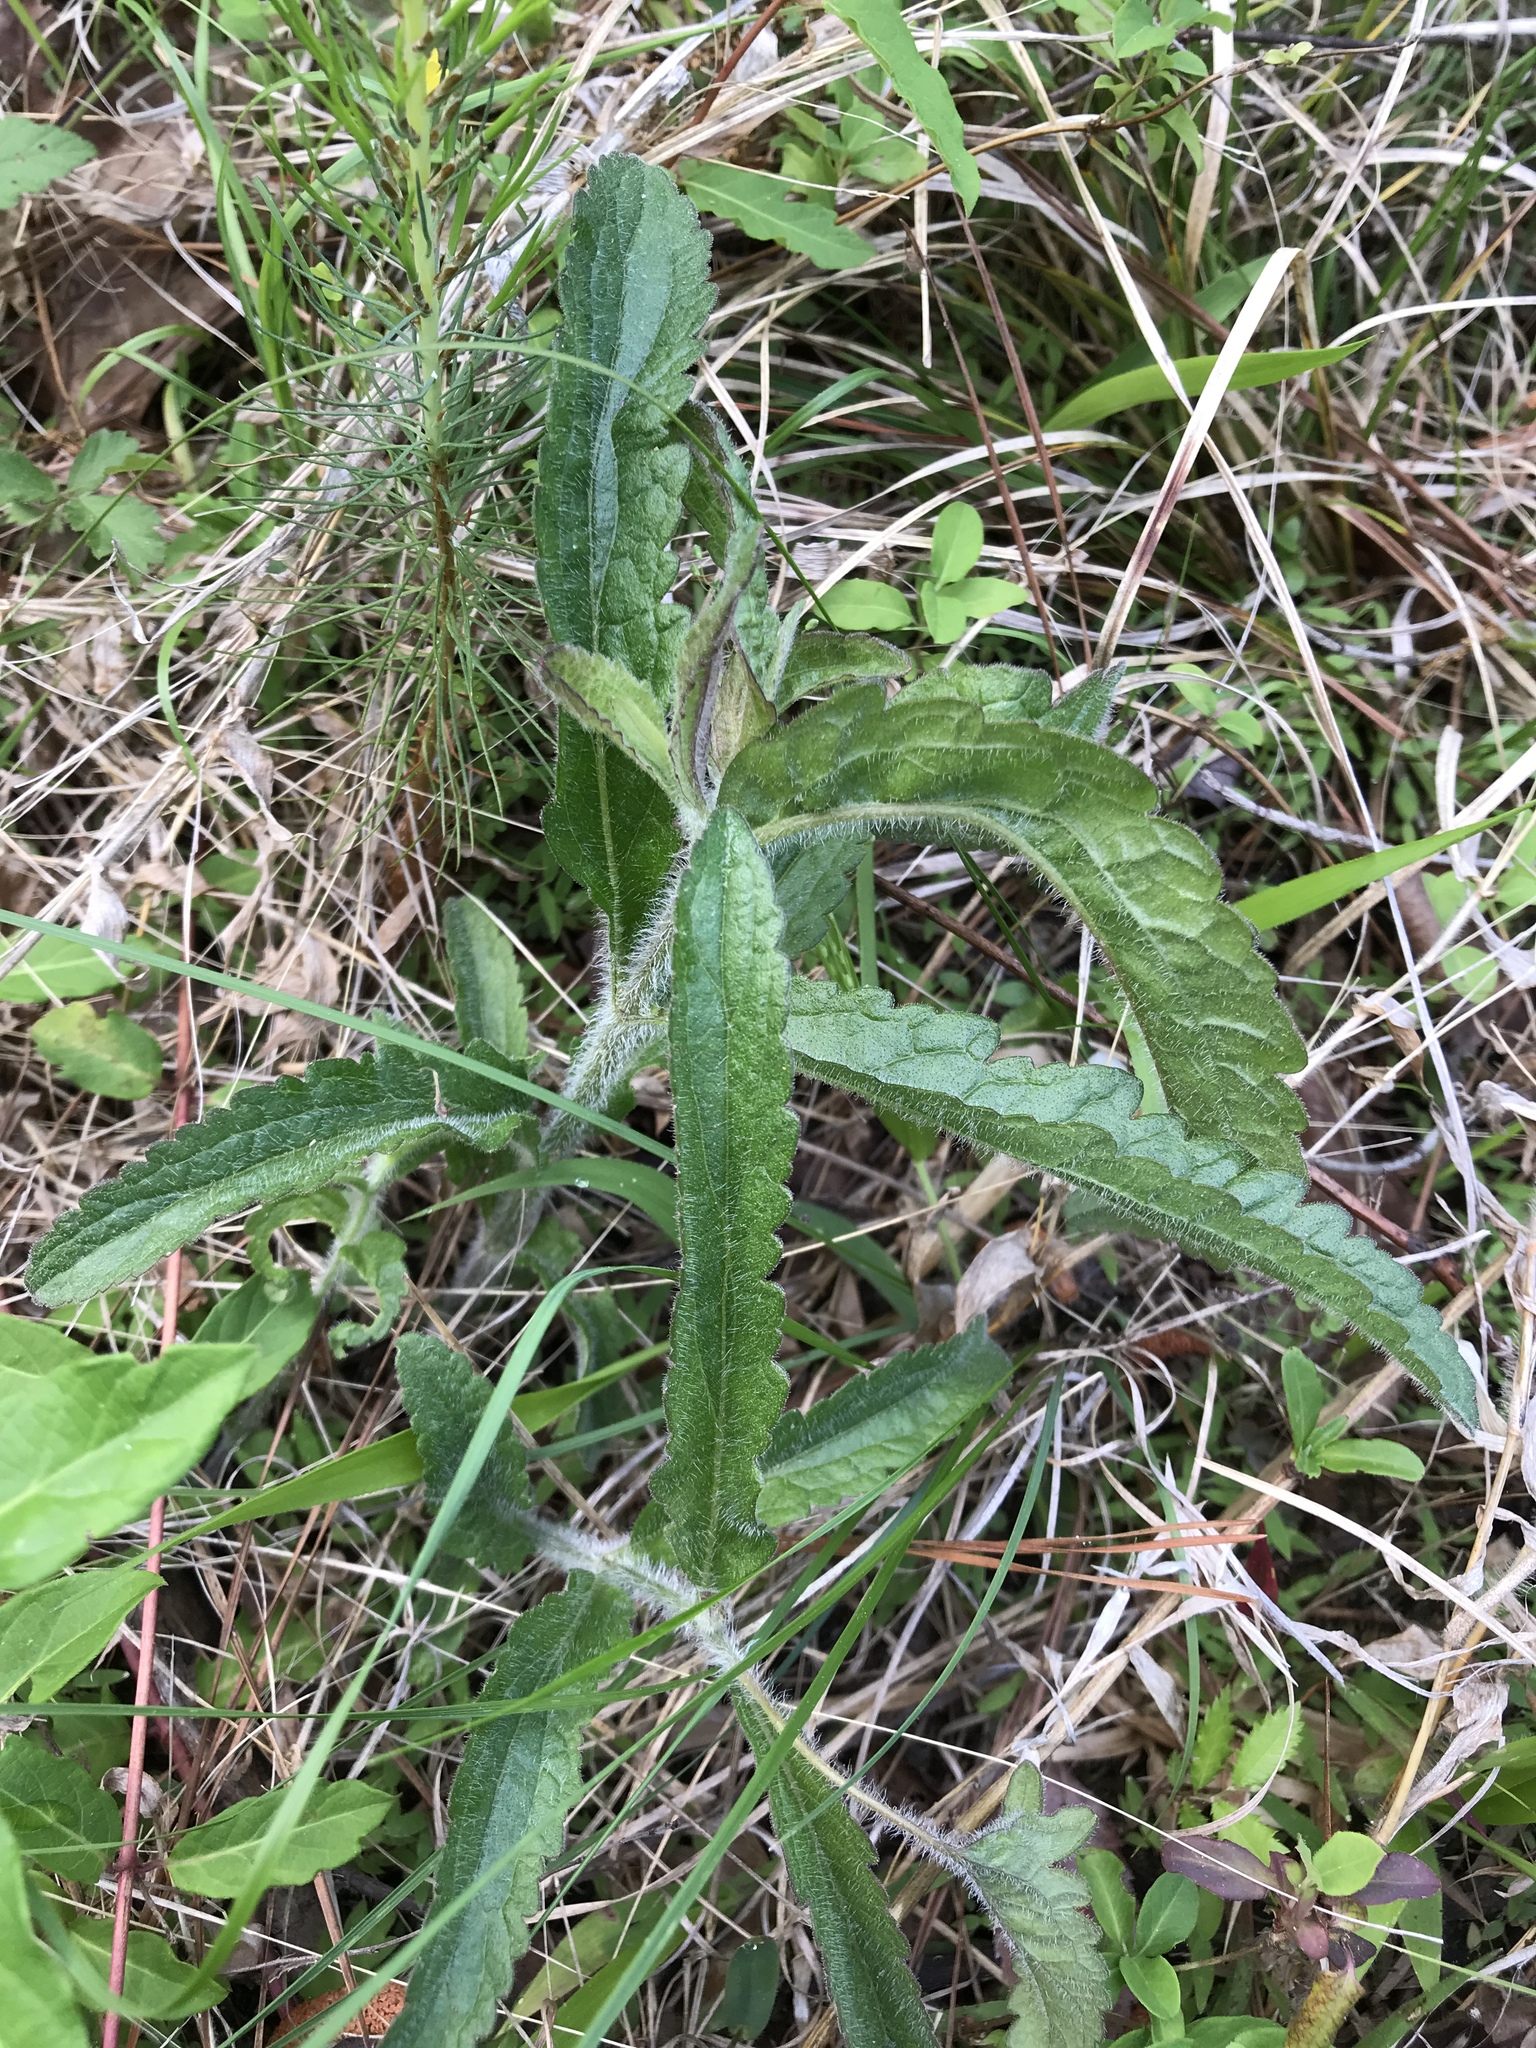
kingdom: Plantae
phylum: Tracheophyta
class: Magnoliopsida
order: Asterales
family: Asteraceae
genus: Eupatorium
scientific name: Eupatorium album
